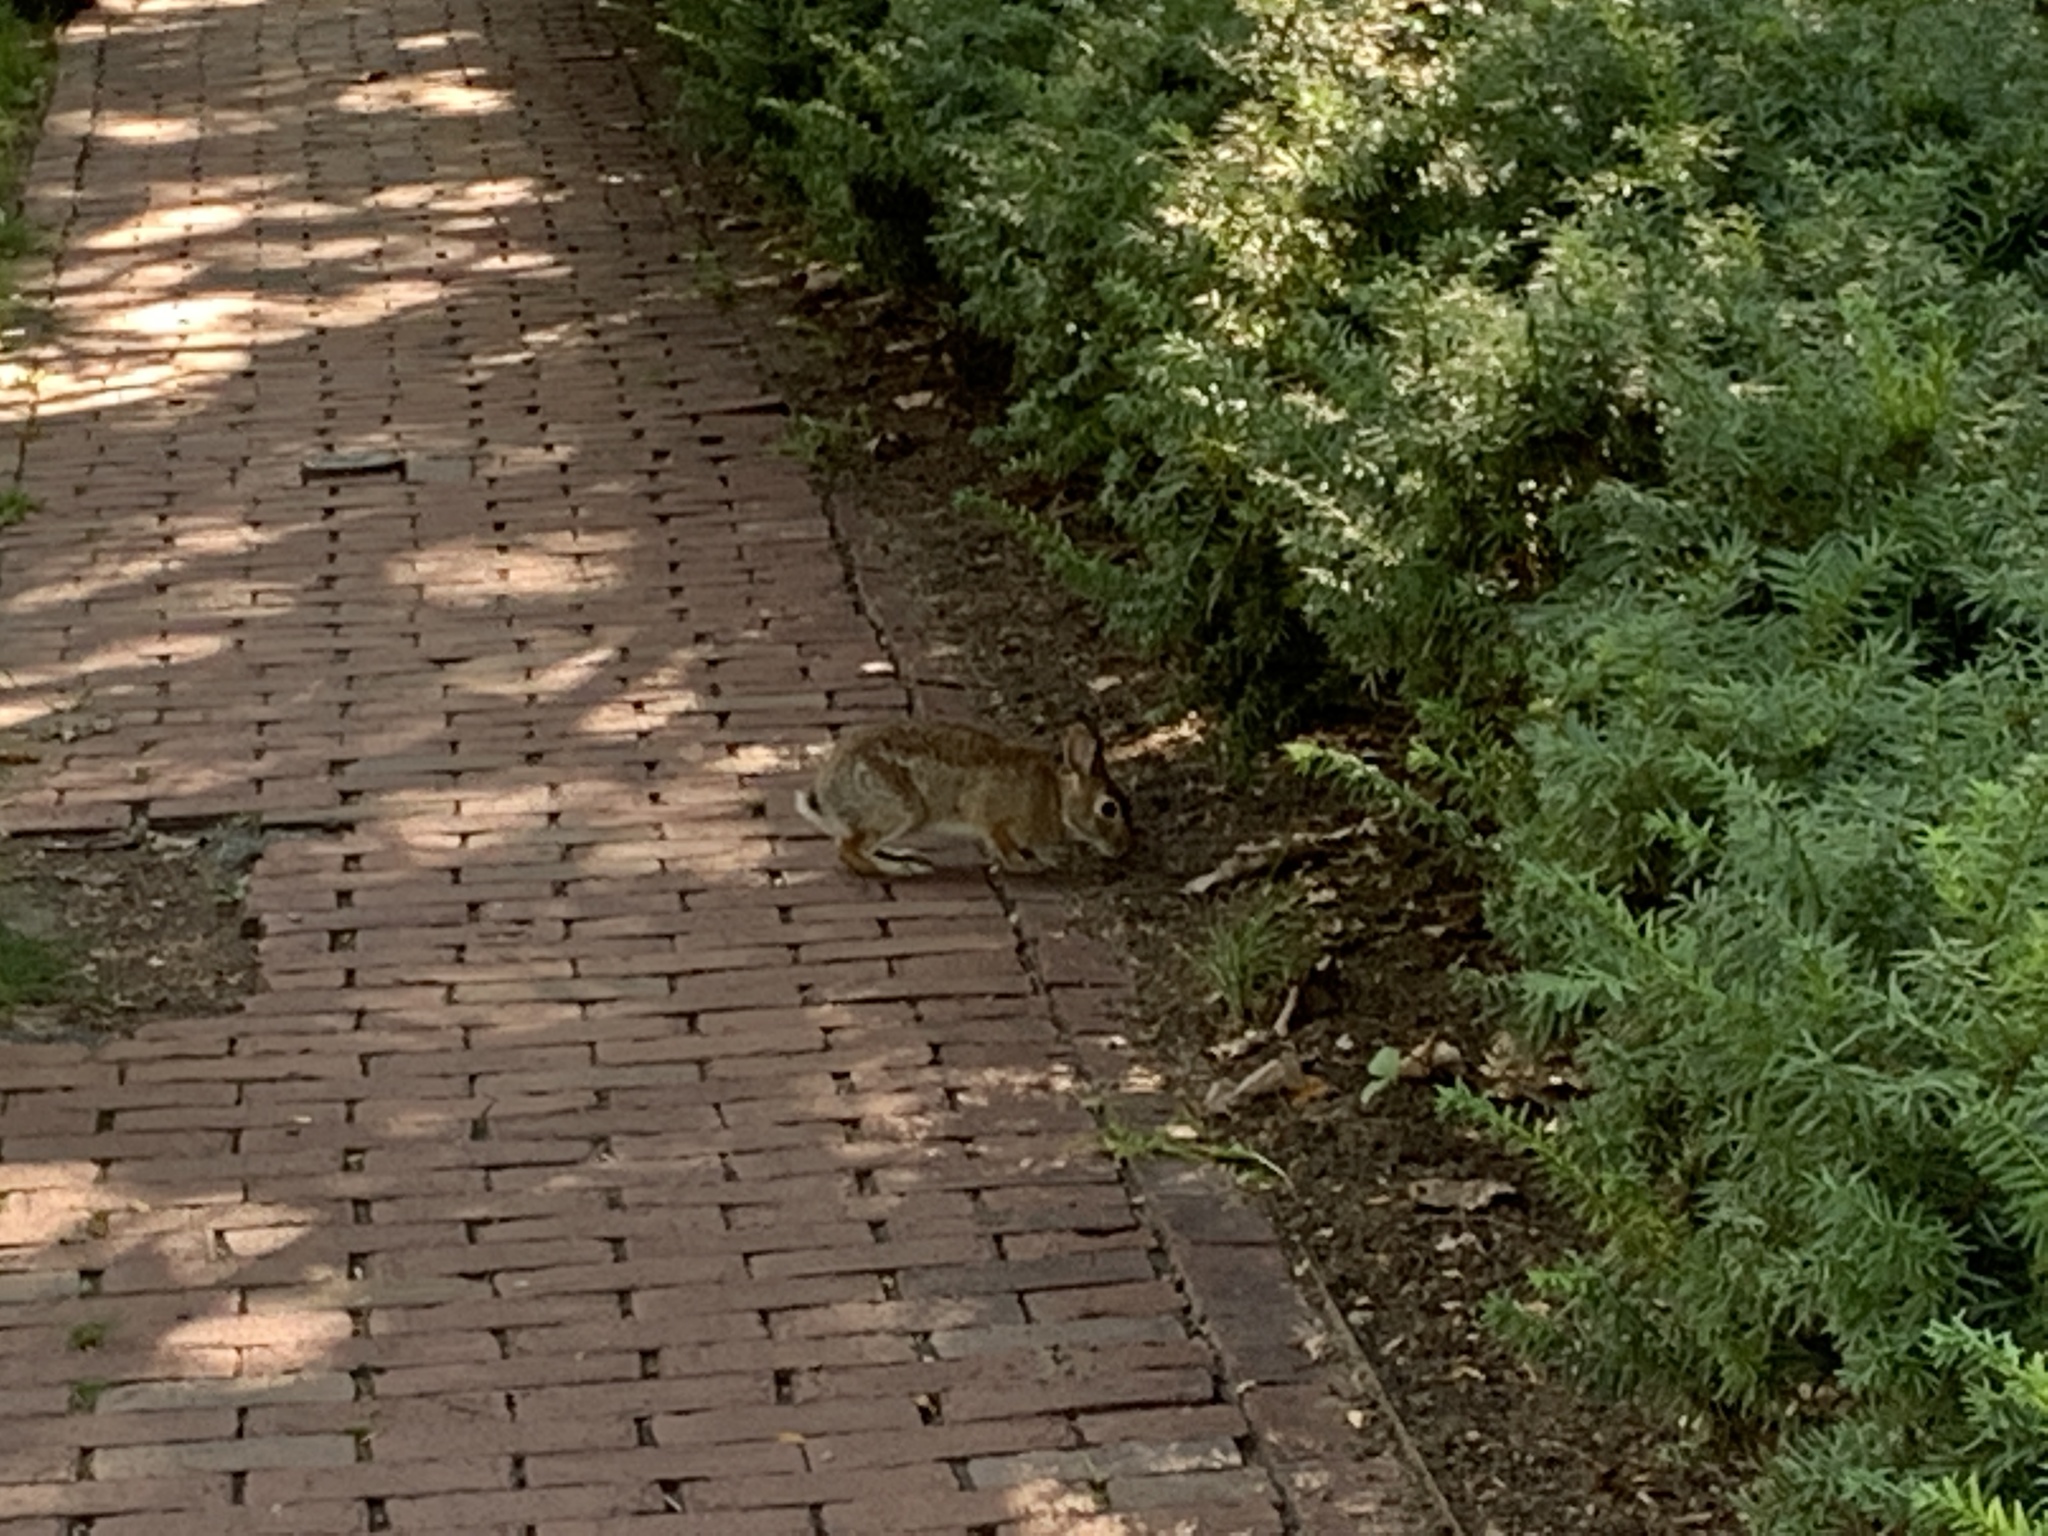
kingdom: Animalia
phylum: Chordata
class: Mammalia
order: Lagomorpha
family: Leporidae
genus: Sylvilagus
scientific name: Sylvilagus floridanus
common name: Eastern cottontail
